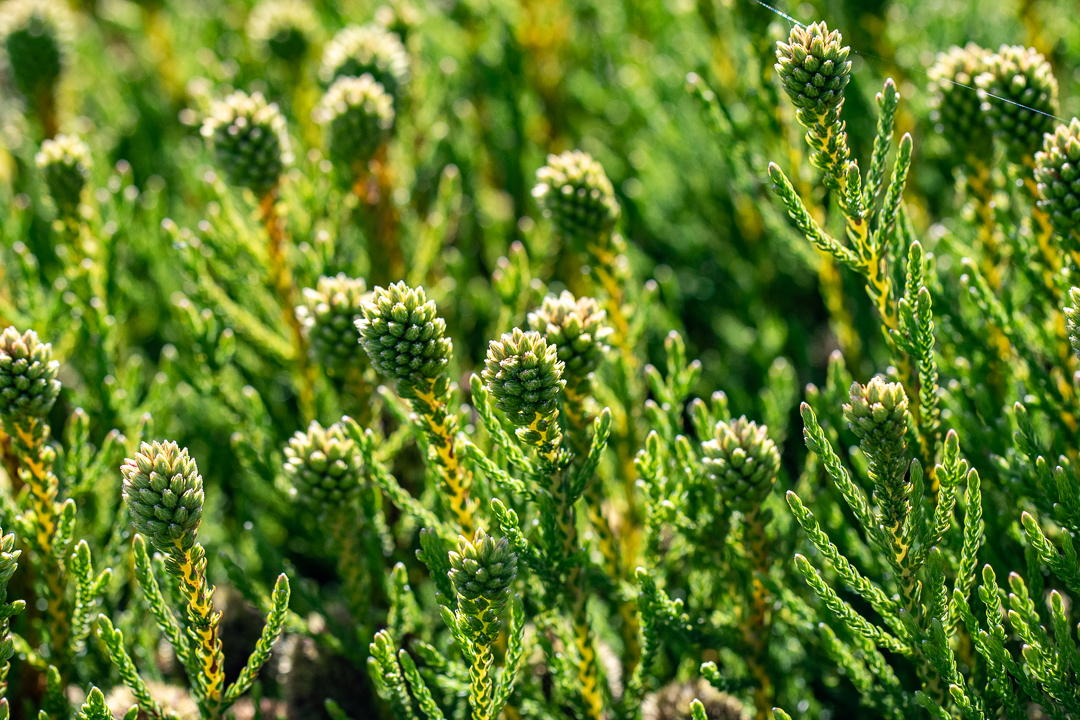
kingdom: Plantae
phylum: Tracheophyta
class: Magnoliopsida
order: Bruniales
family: Bruniaceae
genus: Brunia
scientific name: Brunia fragarioides
